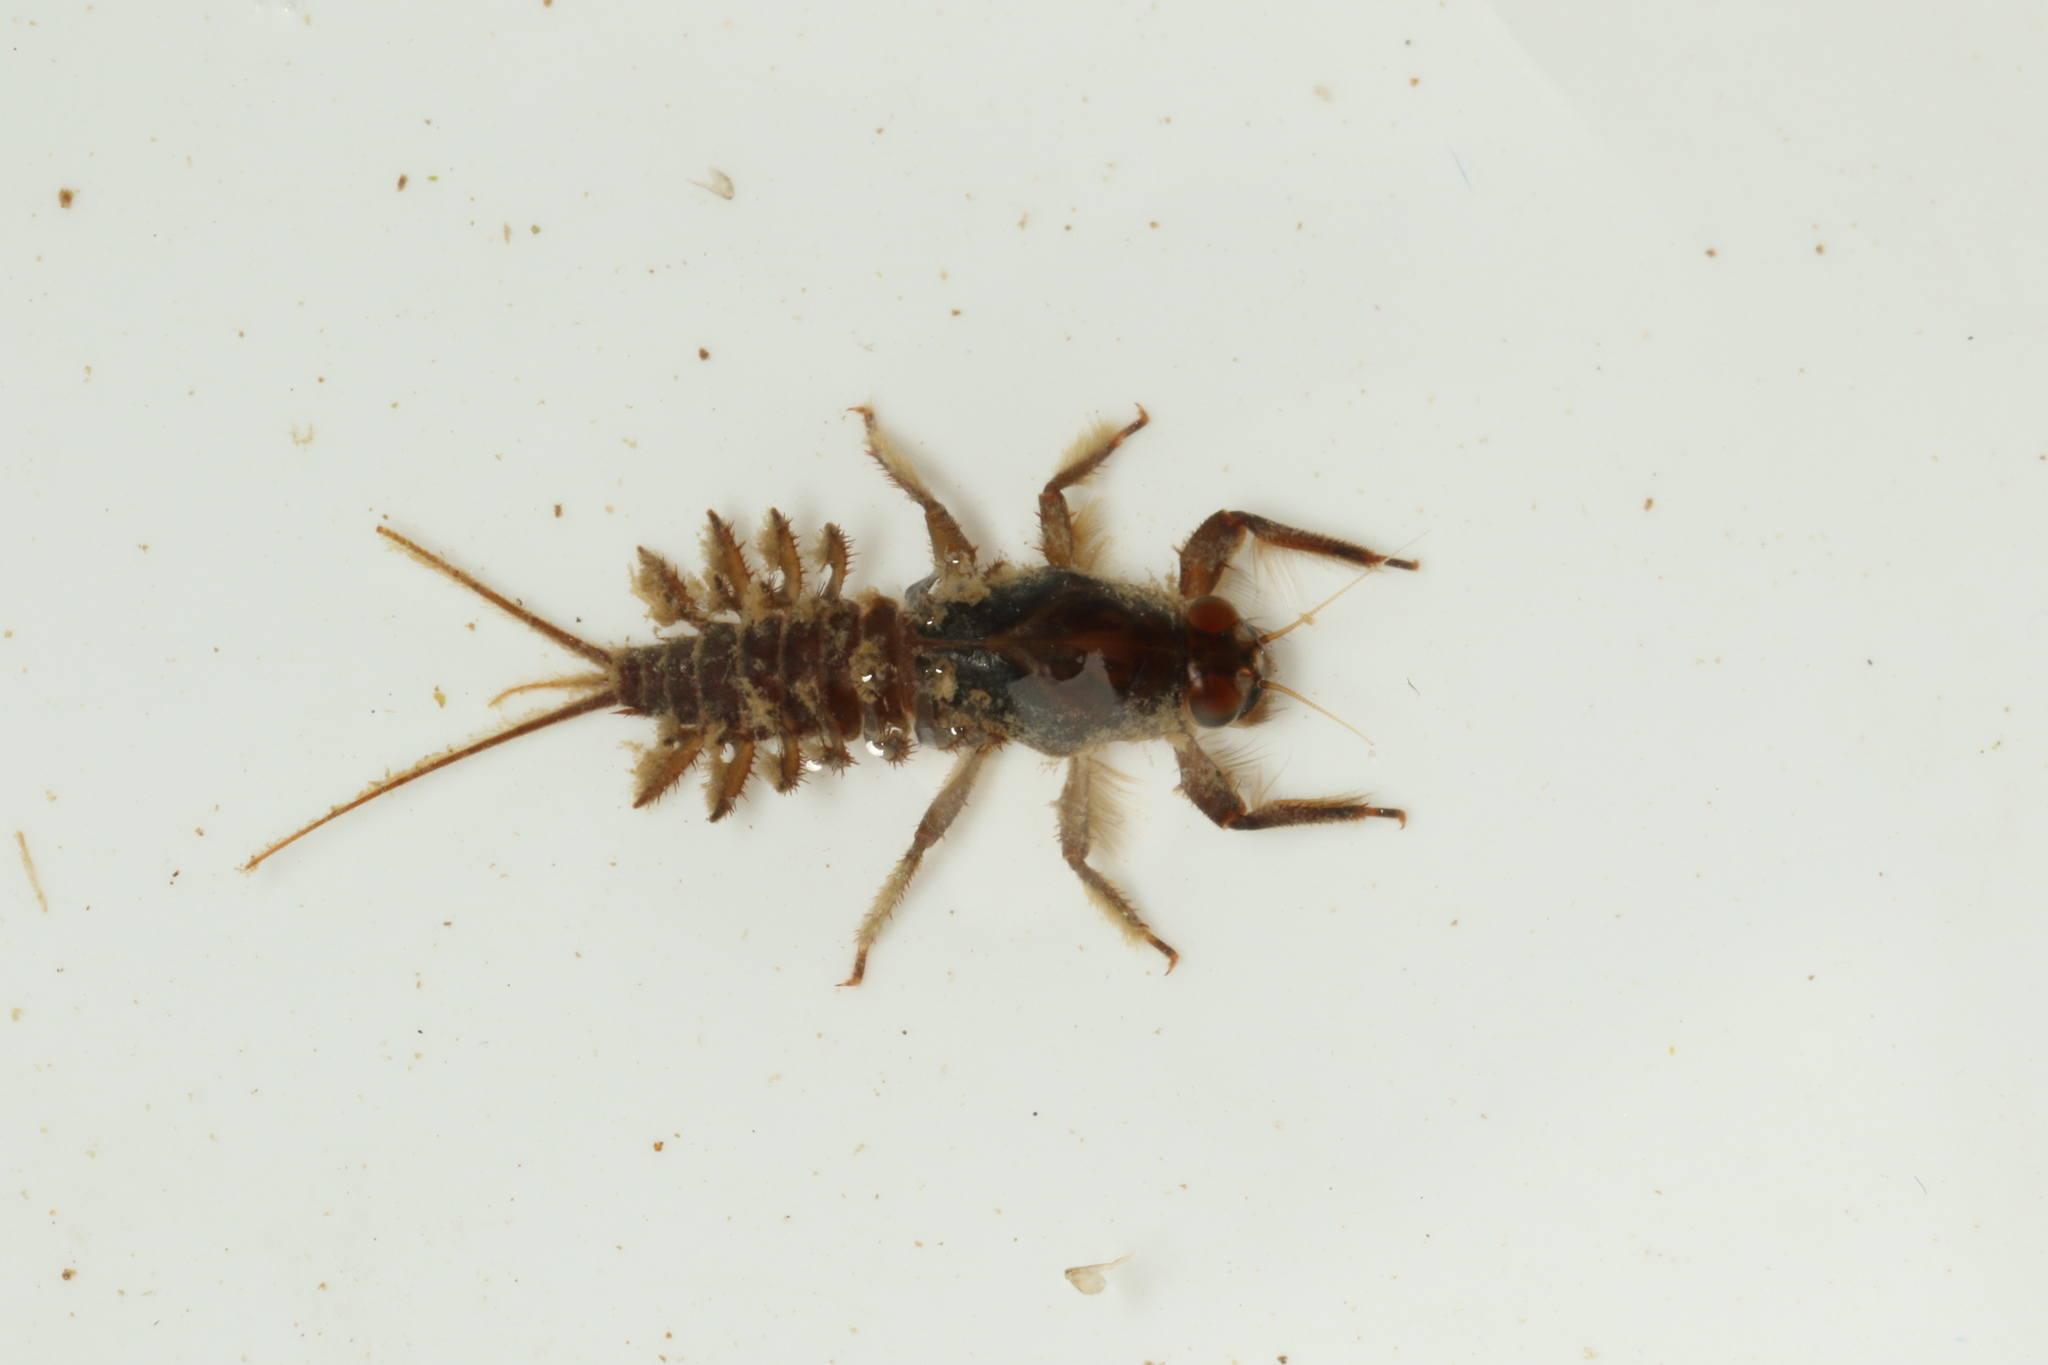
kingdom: Animalia
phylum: Arthropoda
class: Insecta
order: Ephemeroptera
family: Coloburiscidae
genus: Coloburiscus
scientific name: Coloburiscus humeralis
